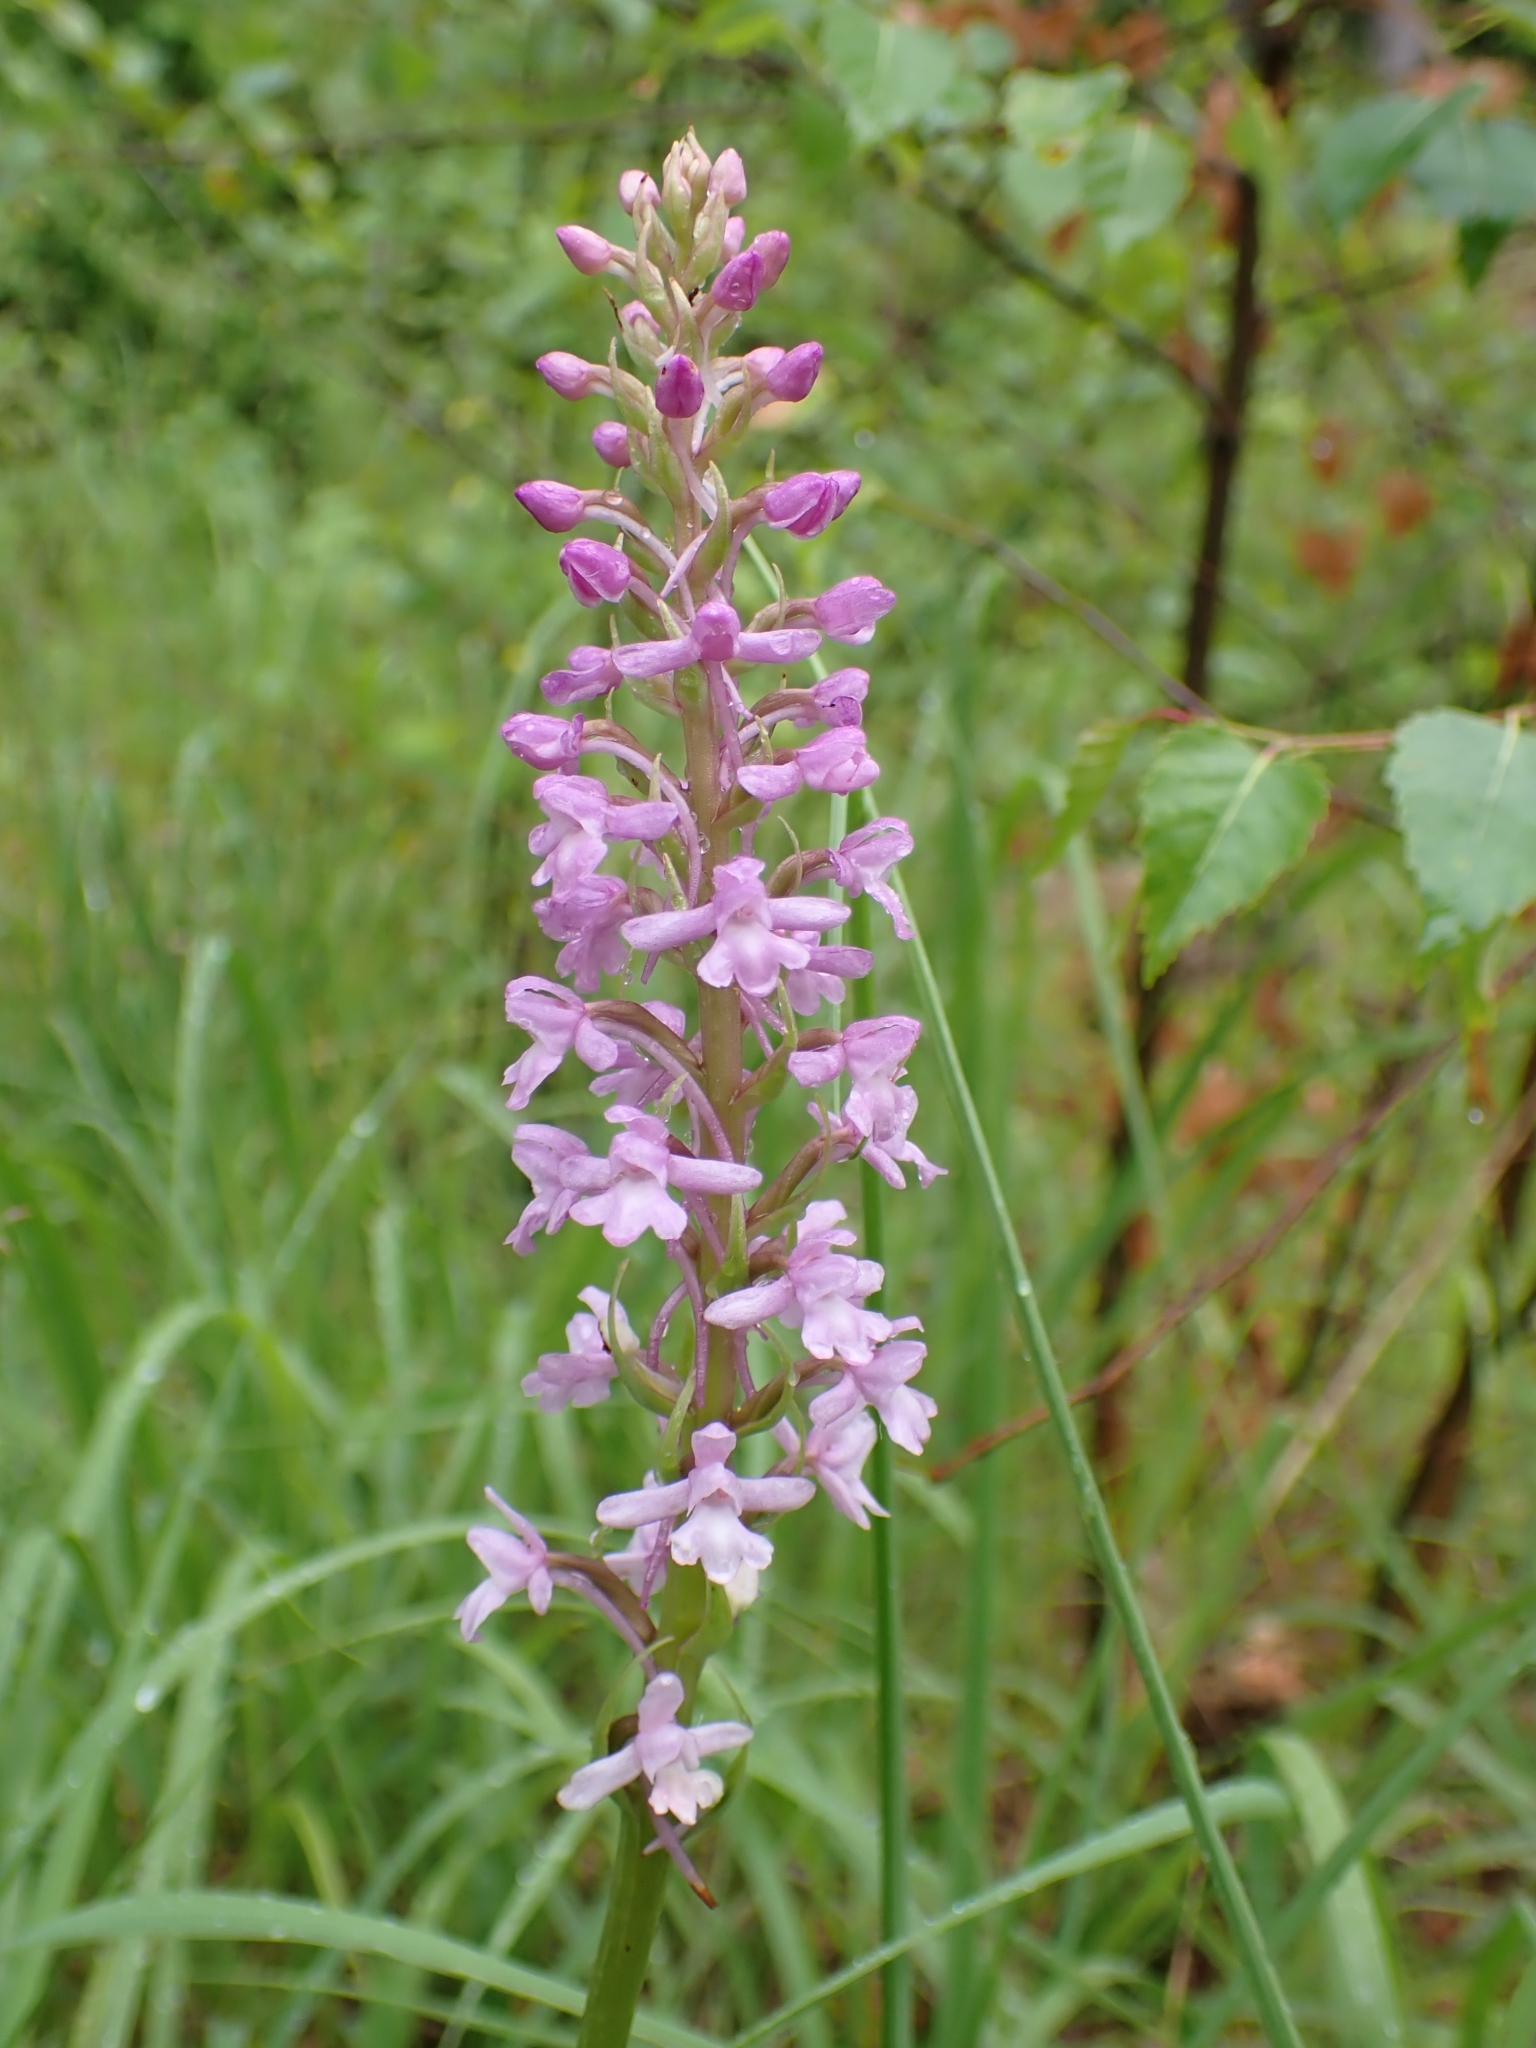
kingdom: Plantae
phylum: Tracheophyta
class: Liliopsida
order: Asparagales
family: Orchidaceae
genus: Gymnadenia
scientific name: Gymnadenia conopsea
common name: Fragrant orchid
